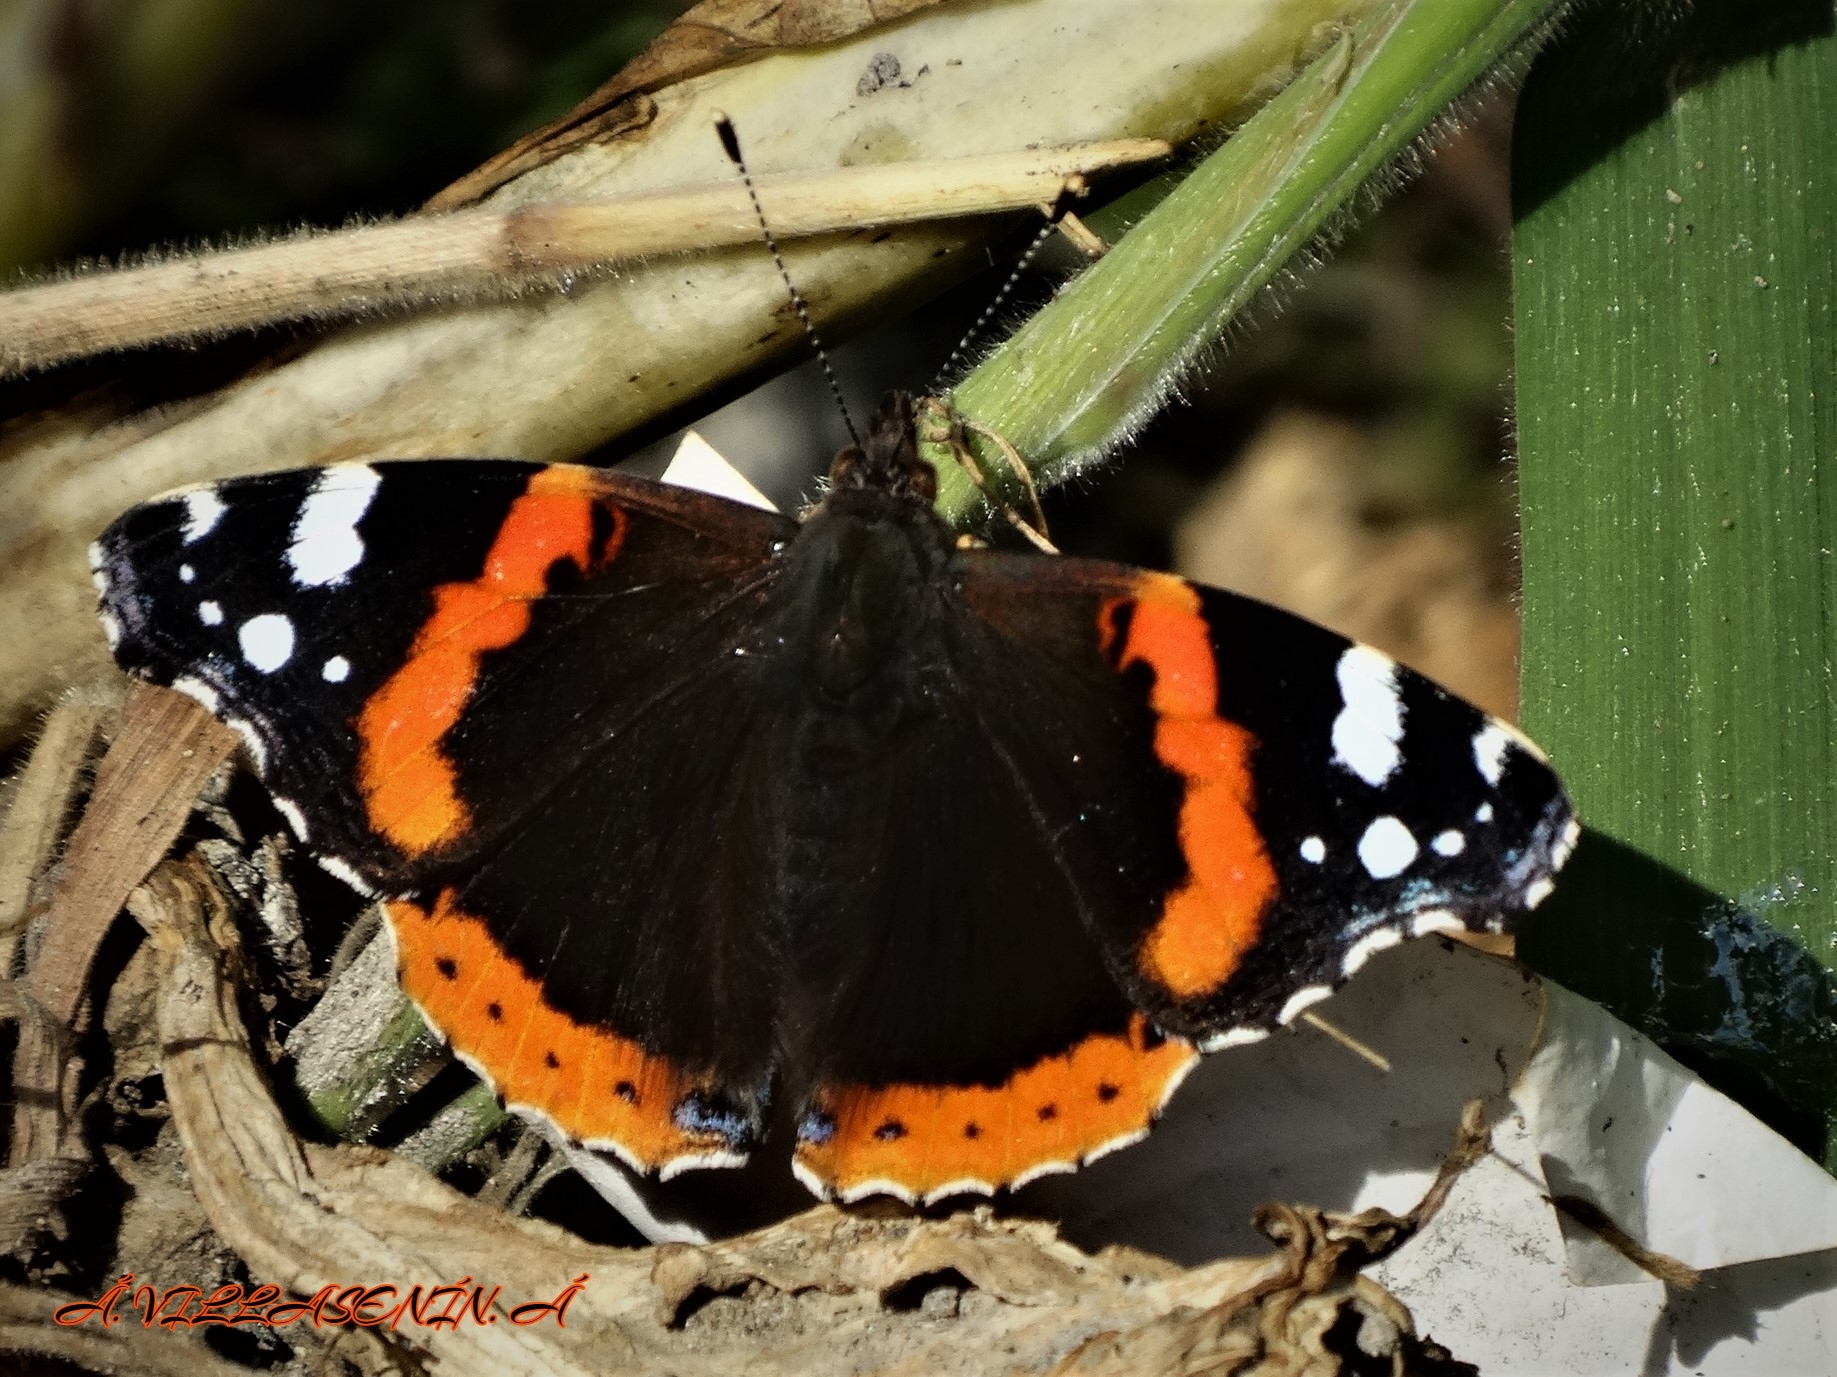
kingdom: Animalia
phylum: Arthropoda
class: Insecta
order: Lepidoptera
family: Nymphalidae
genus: Vanessa
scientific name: Vanessa atalanta
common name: Red admiral
